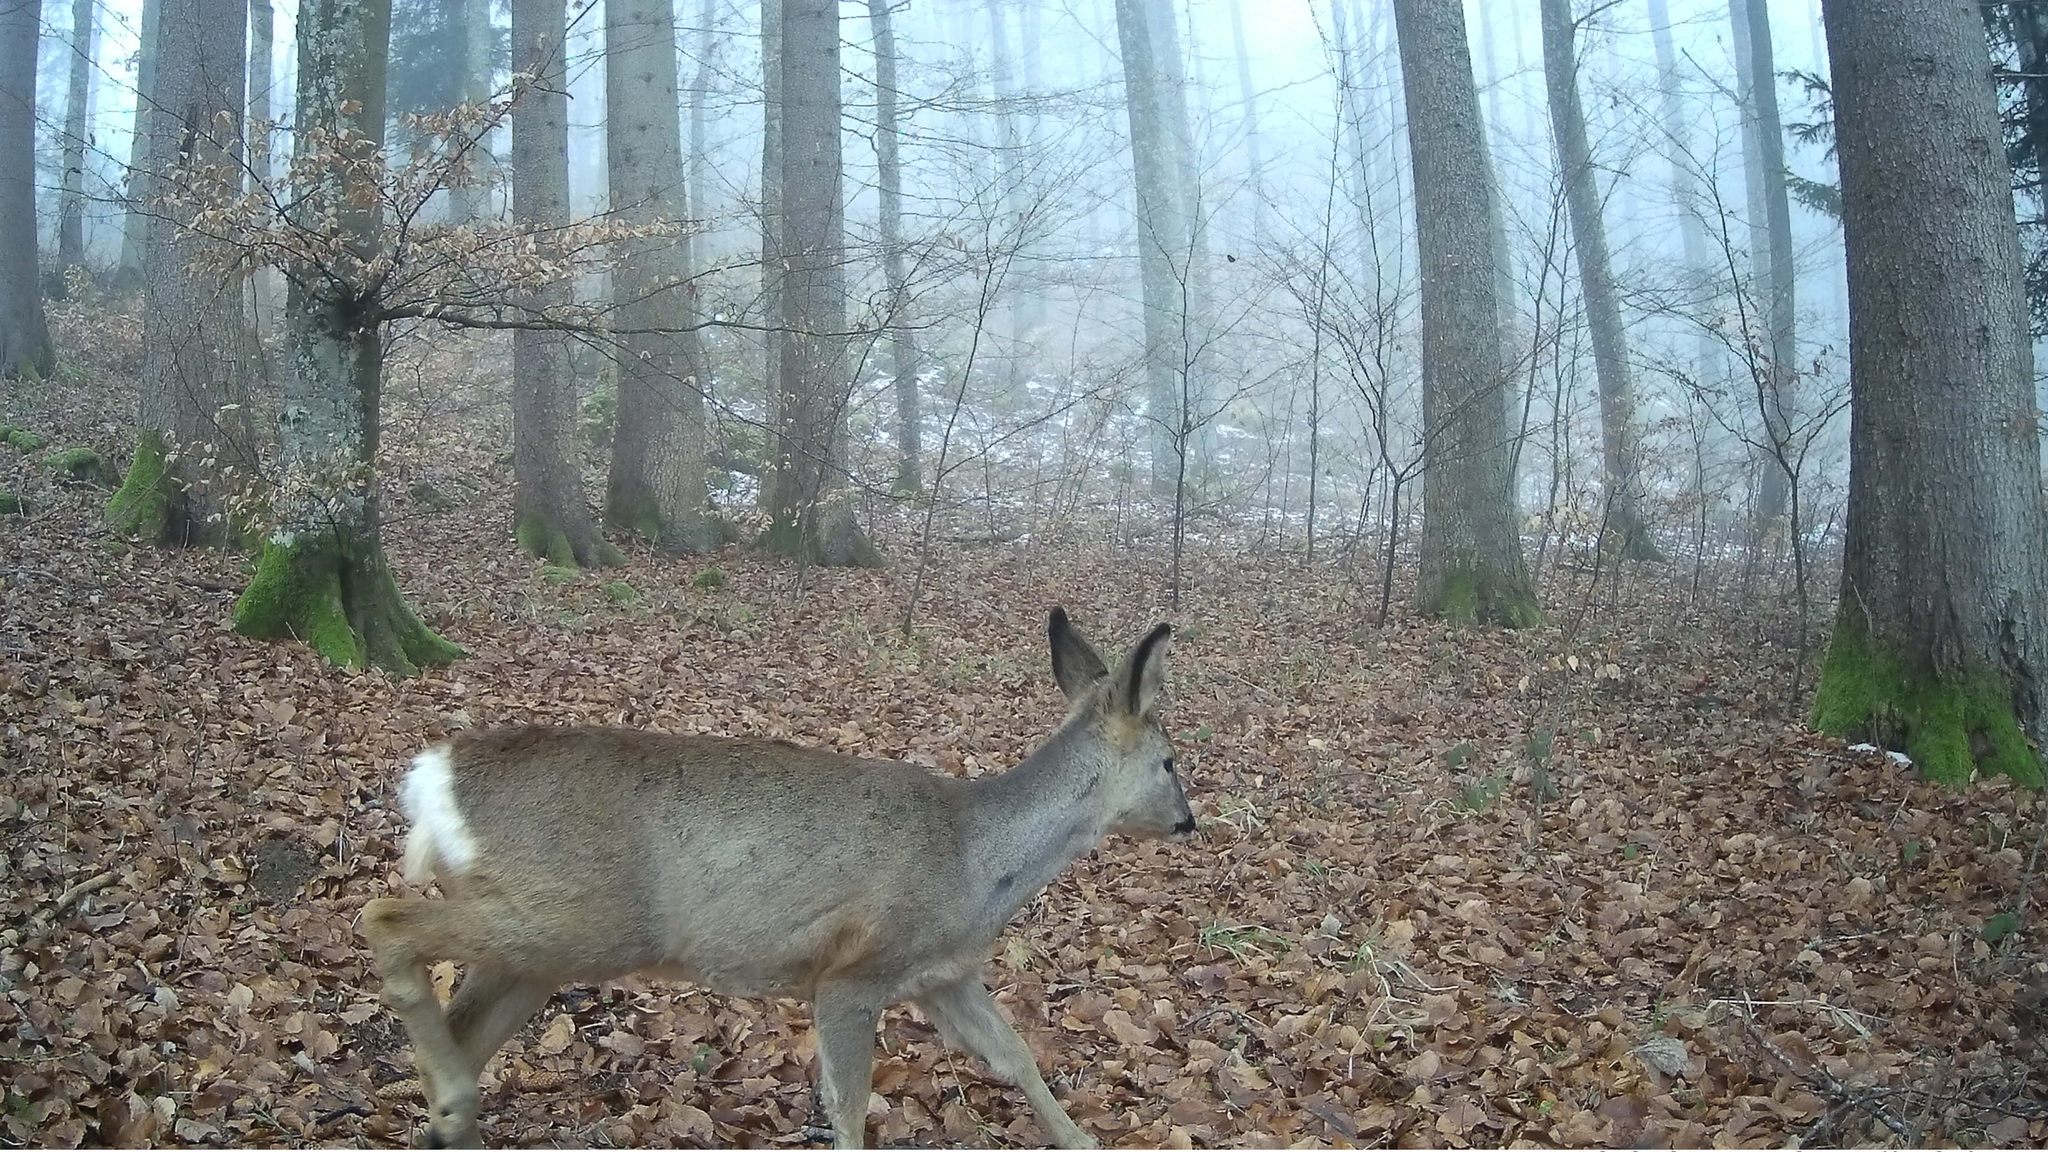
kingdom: Animalia
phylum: Chordata
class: Mammalia
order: Artiodactyla
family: Cervidae
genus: Capreolus
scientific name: Capreolus capreolus
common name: Western roe deer
